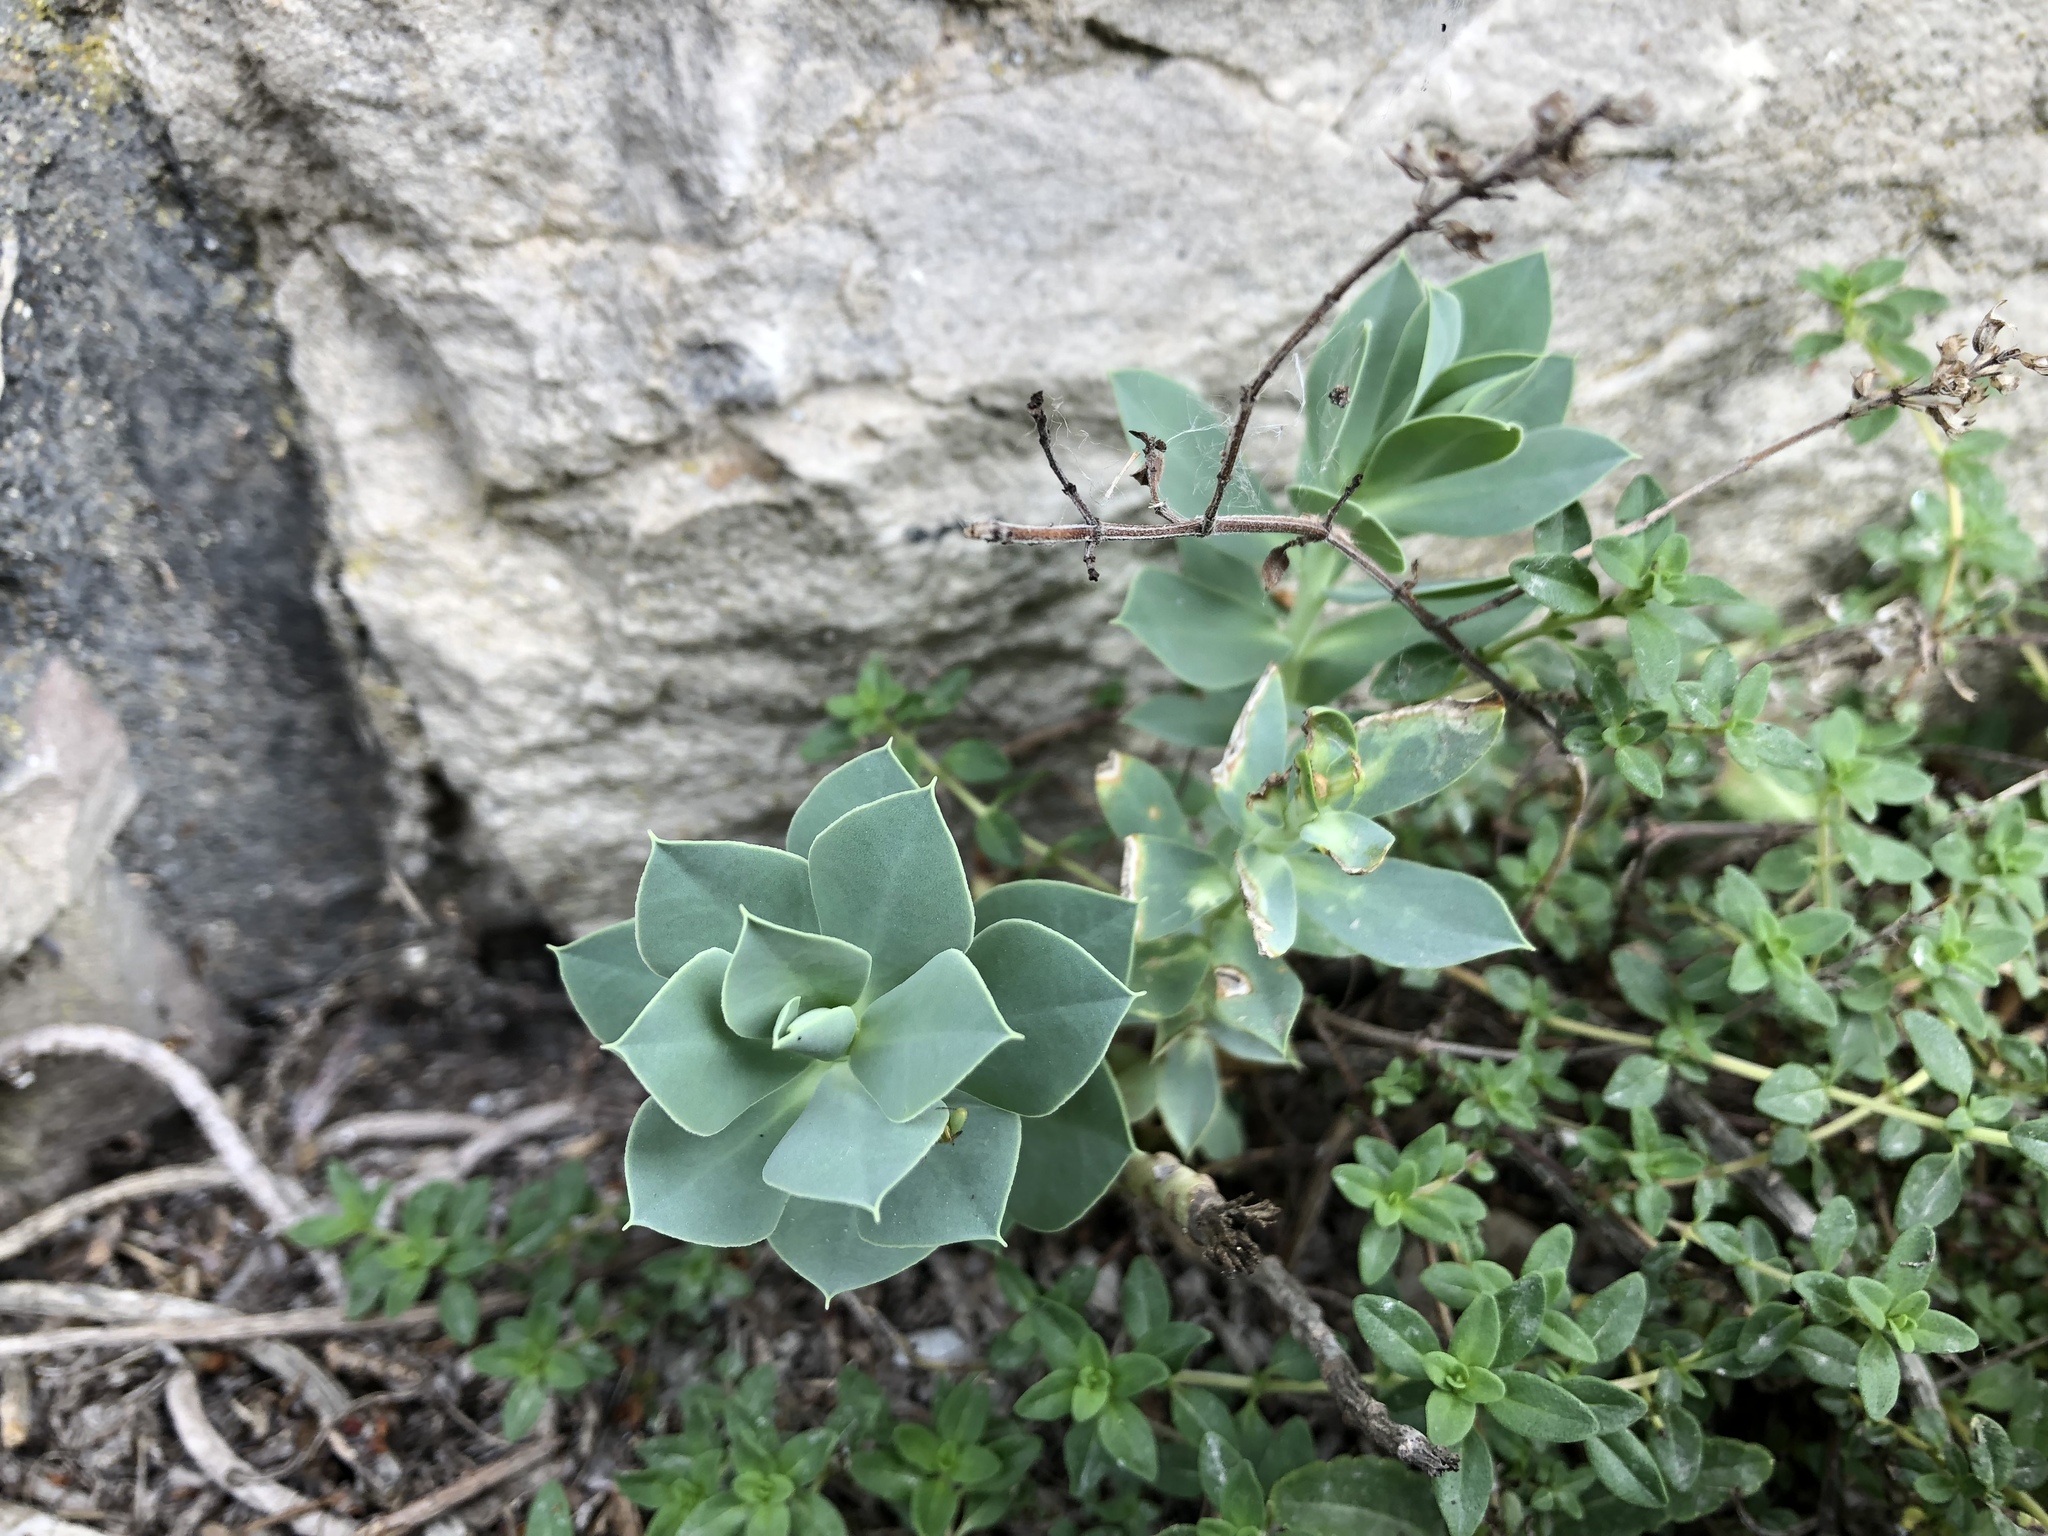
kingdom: Plantae
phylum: Tracheophyta
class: Magnoliopsida
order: Malpighiales
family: Euphorbiaceae
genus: Euphorbia
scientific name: Euphorbia myrsinites
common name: Myrtle spurge
